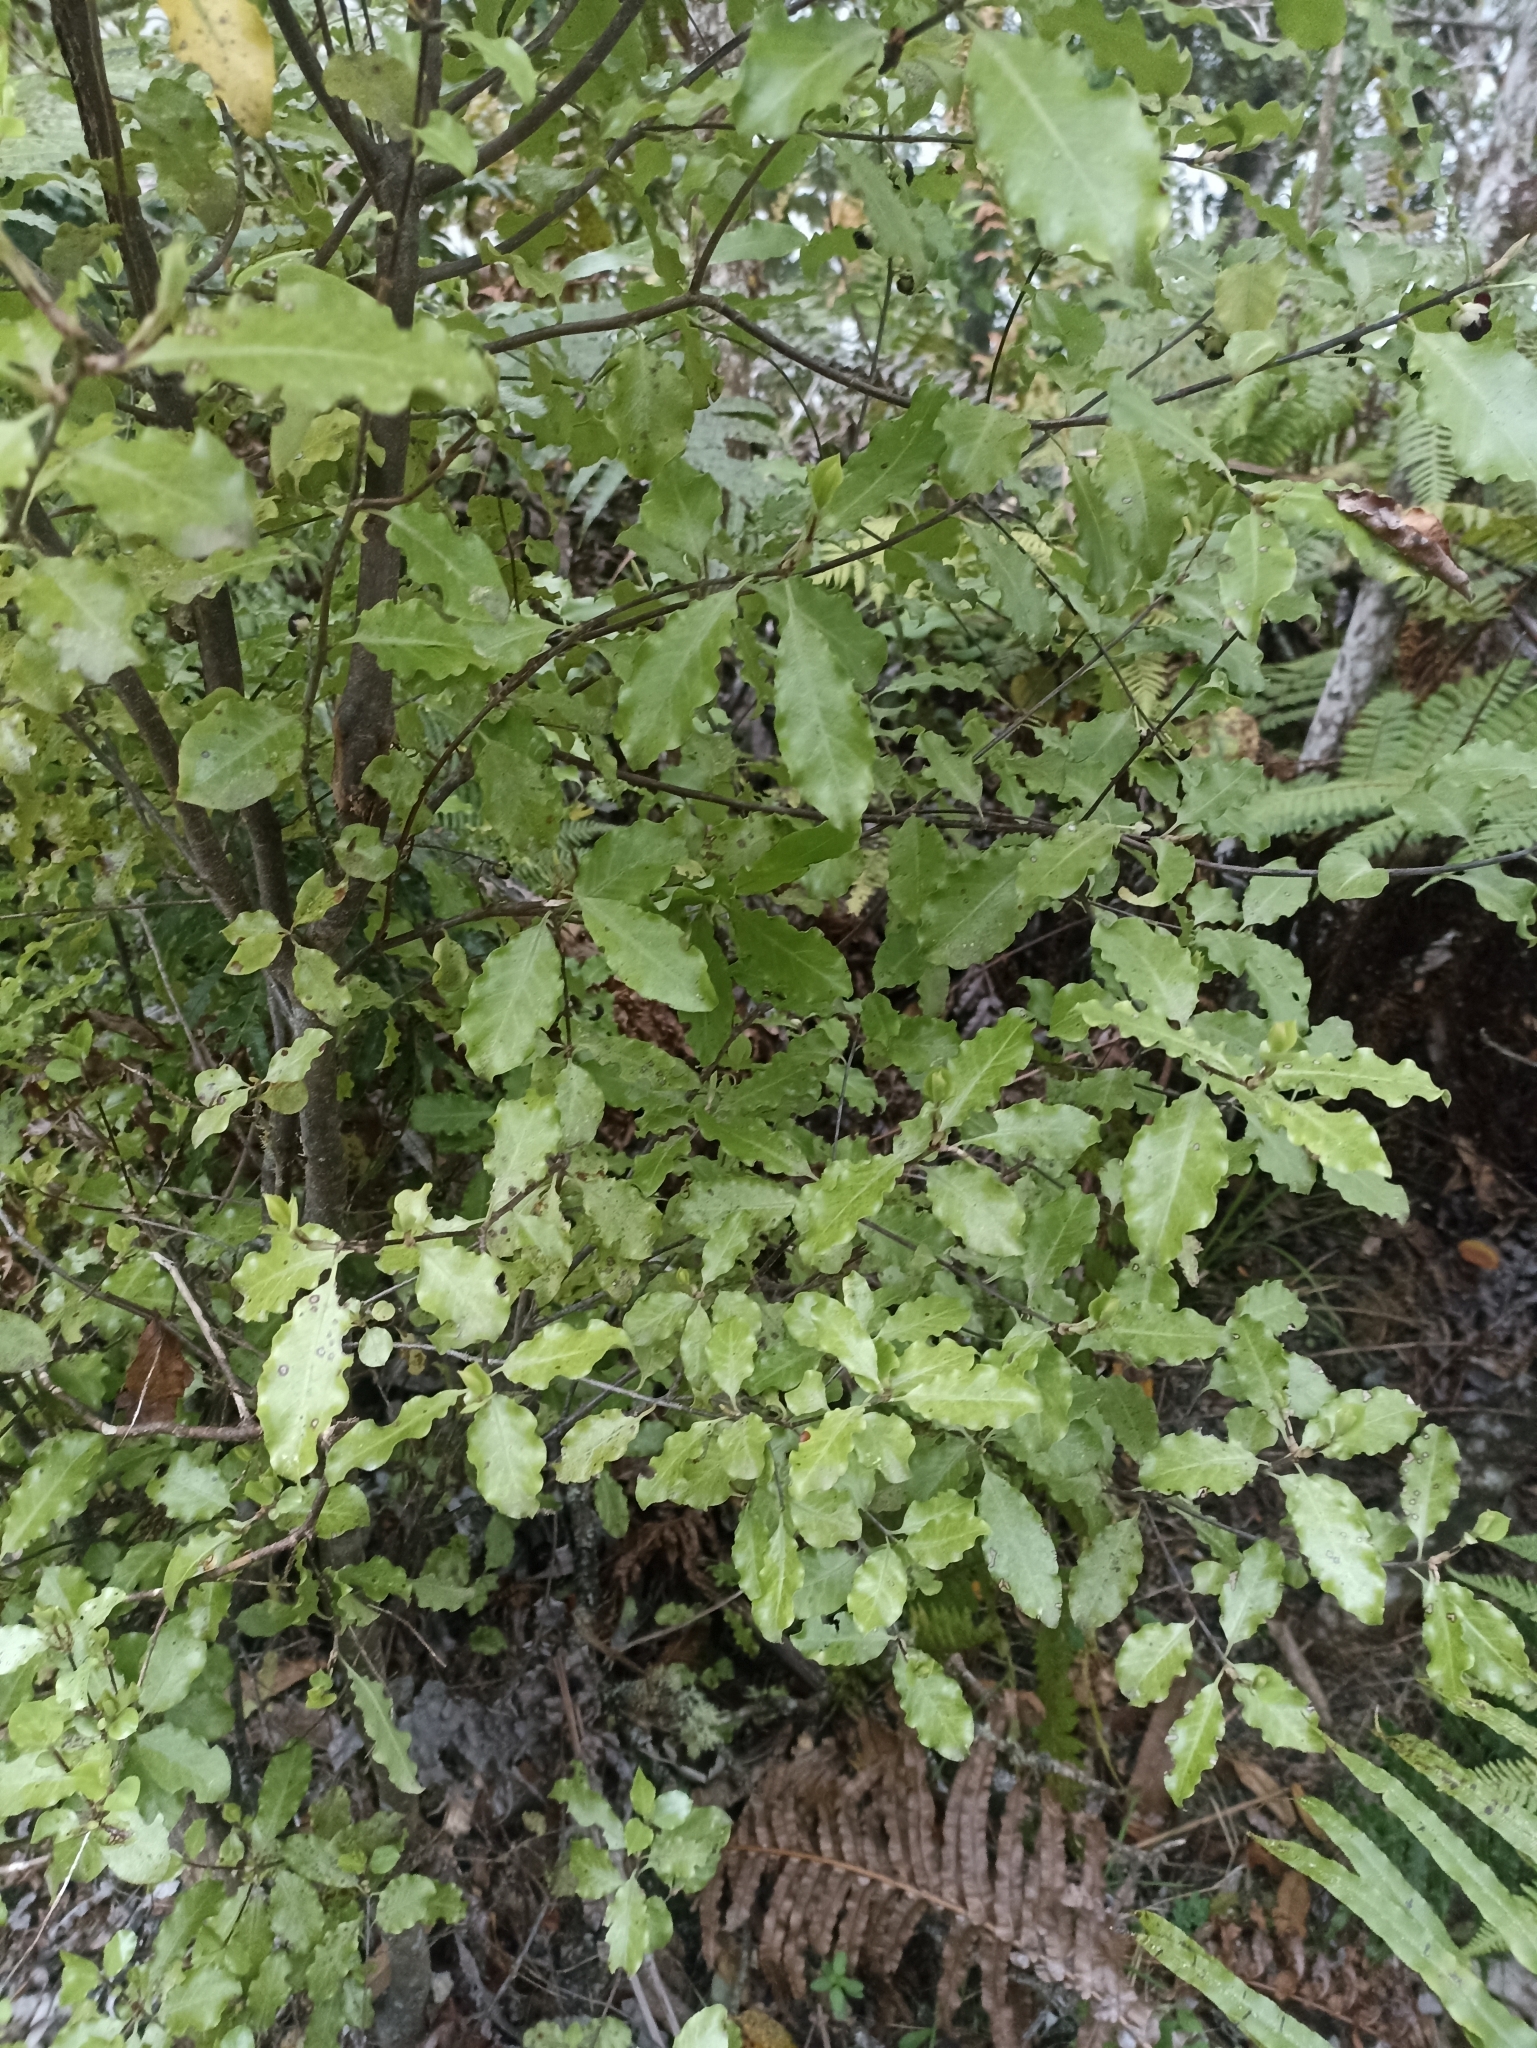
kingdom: Plantae
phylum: Tracheophyta
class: Magnoliopsida
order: Apiales
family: Pittosporaceae
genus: Pittosporum
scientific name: Pittosporum tenuifolium
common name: Kohuhu
